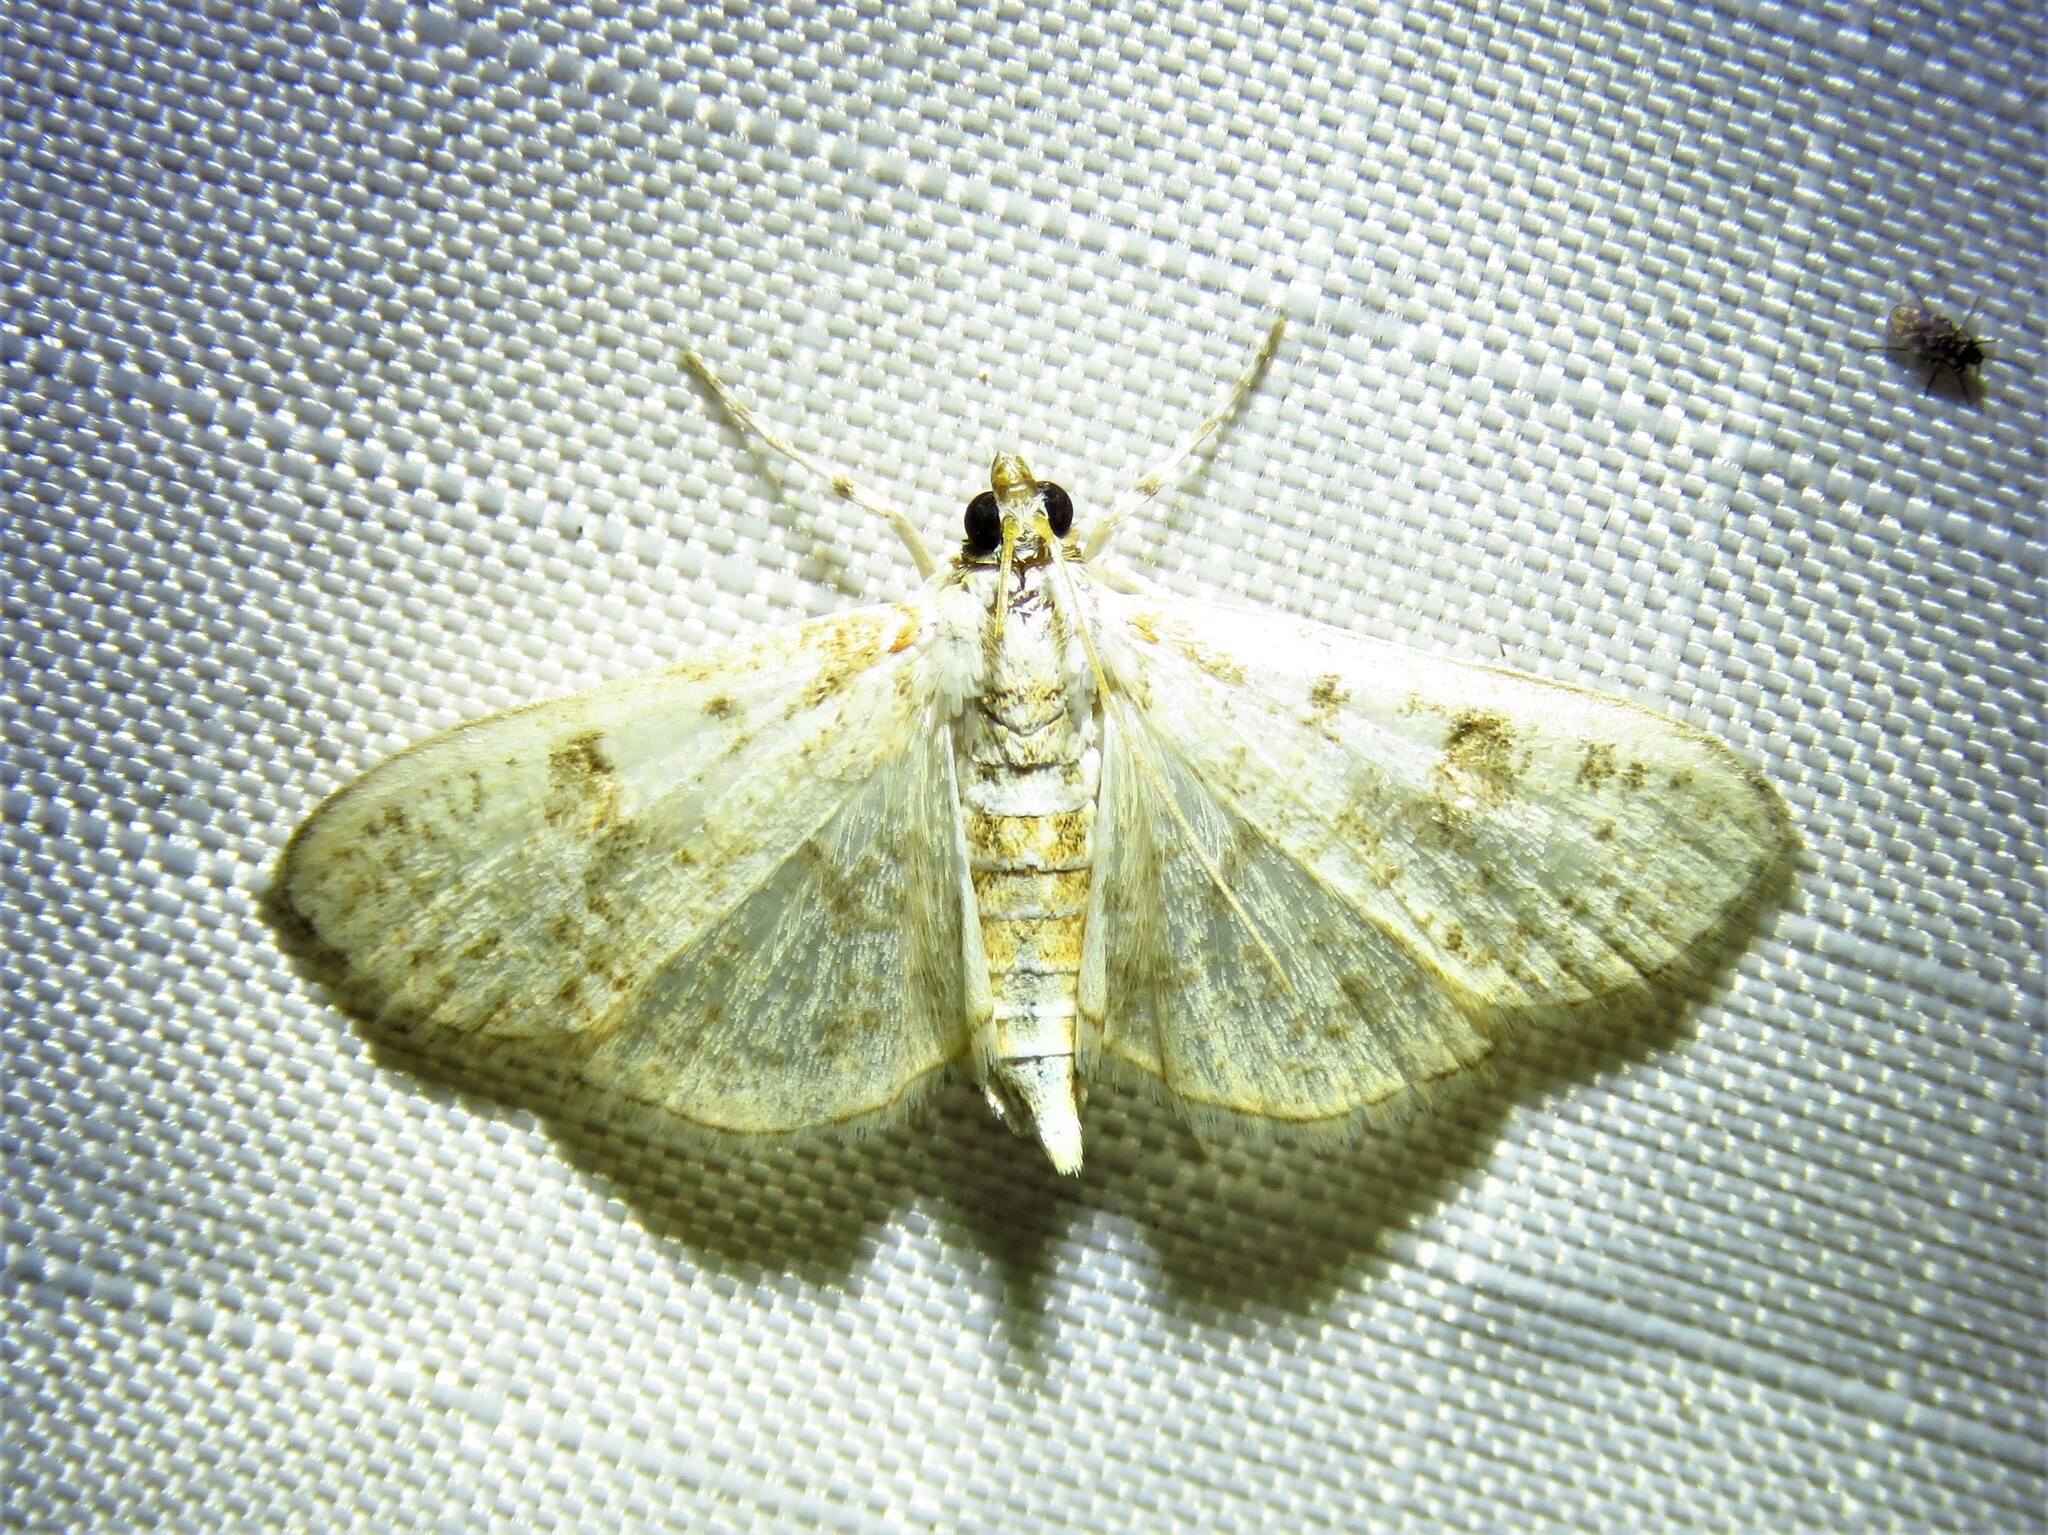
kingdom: Animalia
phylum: Arthropoda
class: Insecta
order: Lepidoptera
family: Crambidae
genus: Palpita
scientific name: Palpita freemanalis
